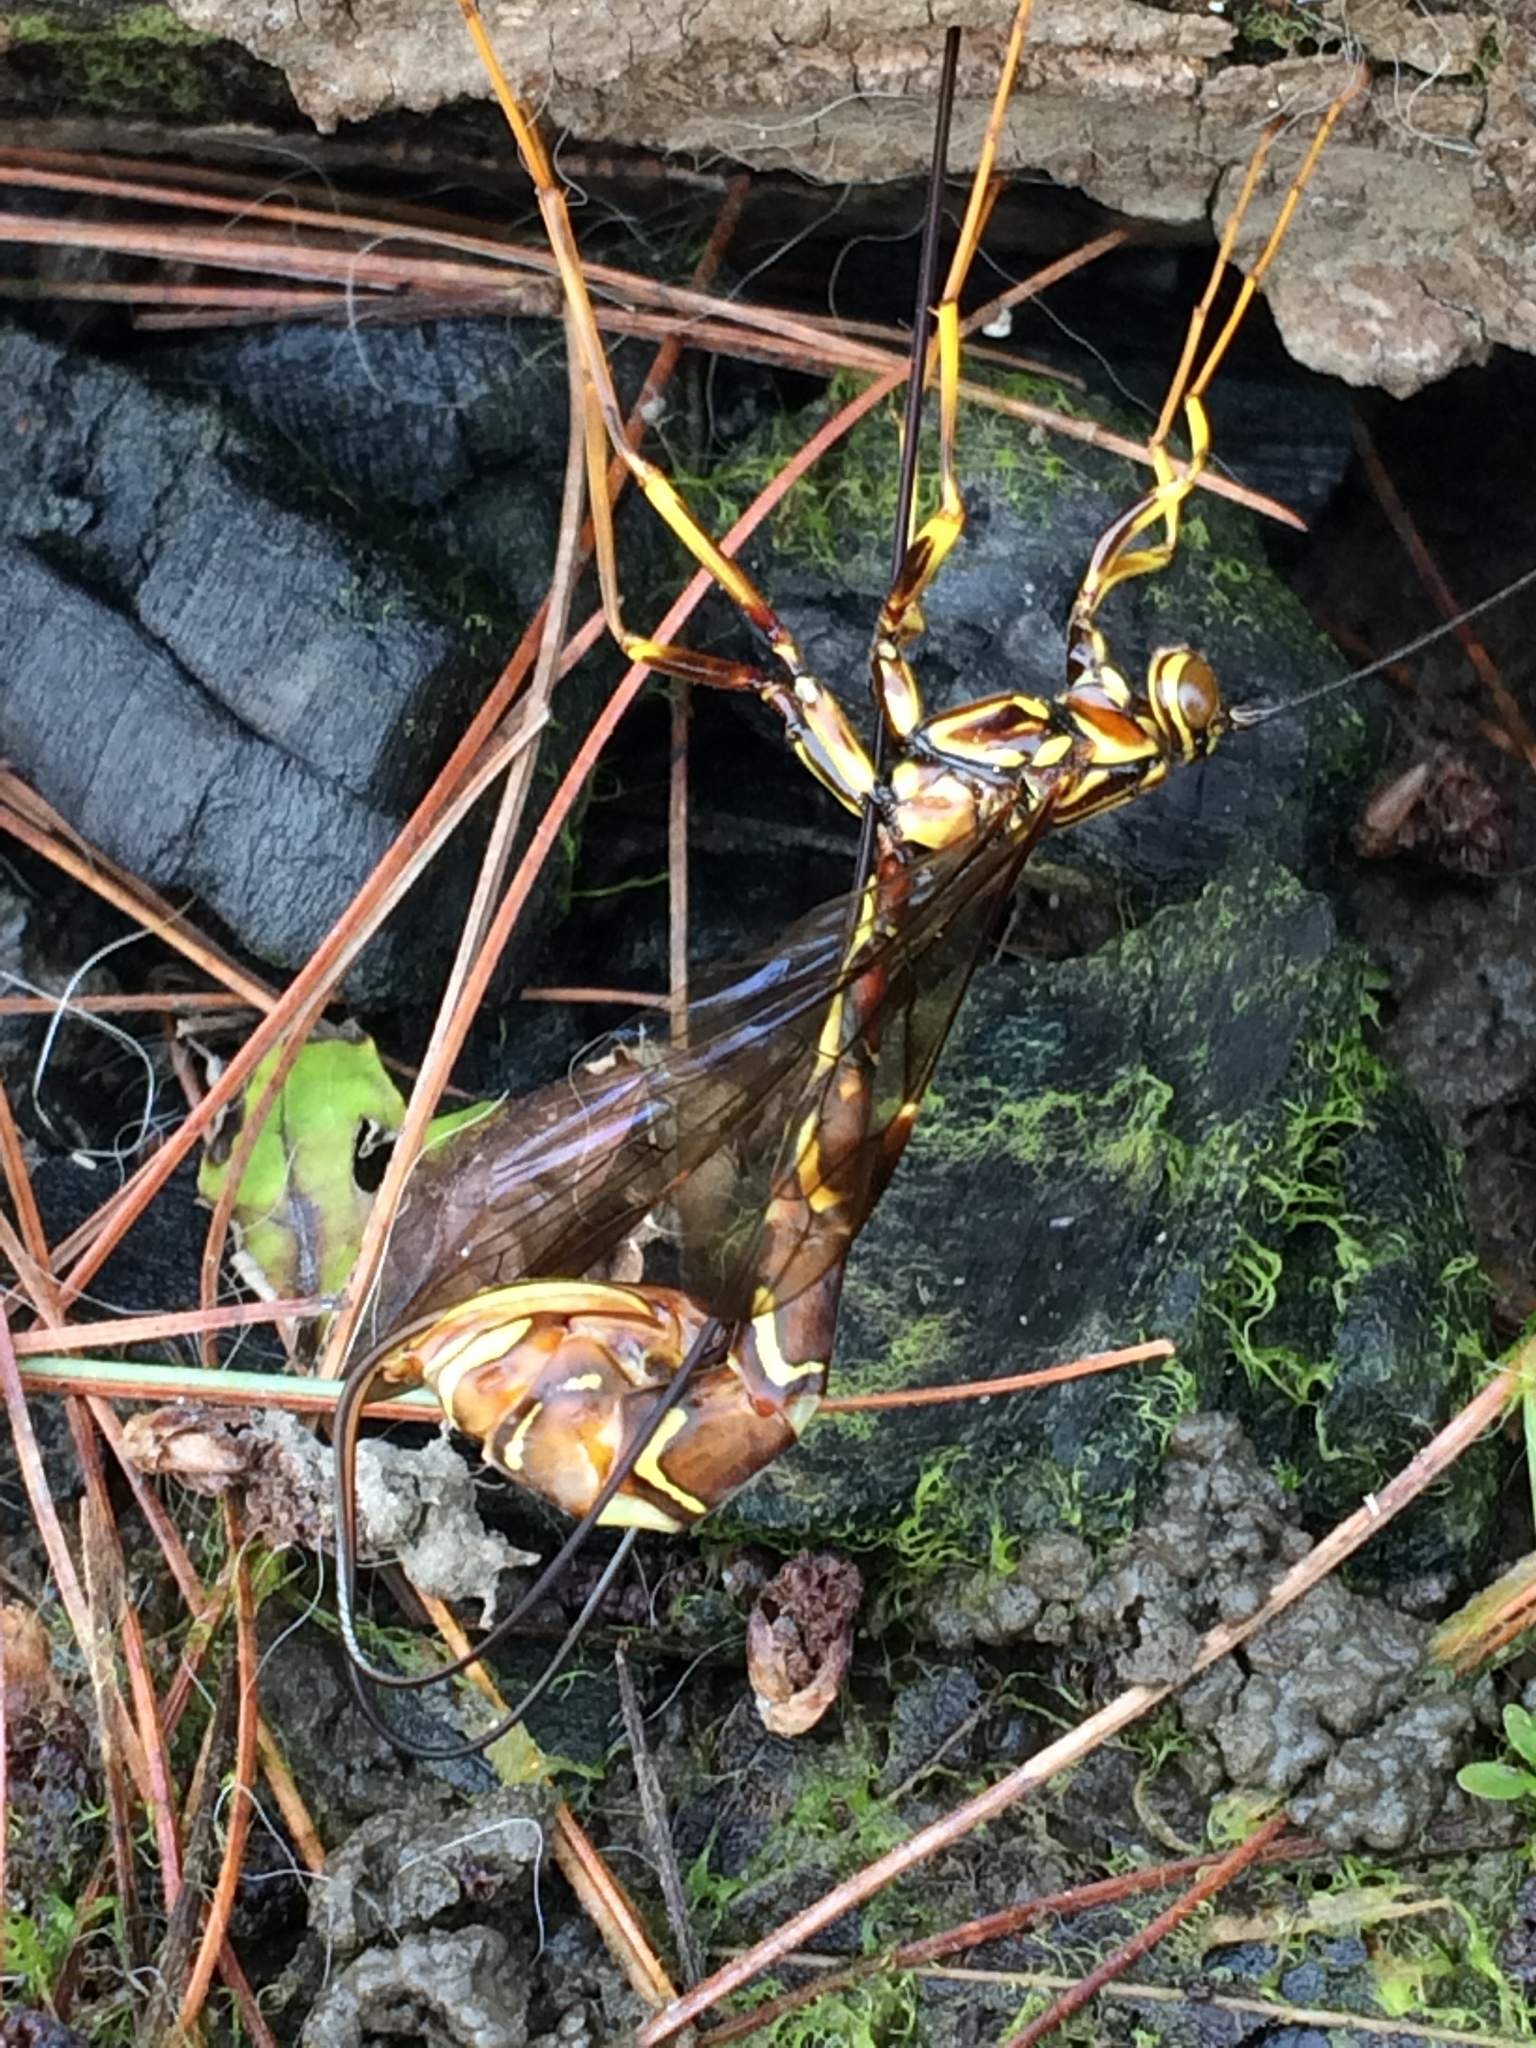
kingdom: Animalia
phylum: Arthropoda
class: Insecta
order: Hymenoptera
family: Ichneumonidae
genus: Megarhyssa
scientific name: Megarhyssa macrura
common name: Long-tailed giant ichneumonid wasp
